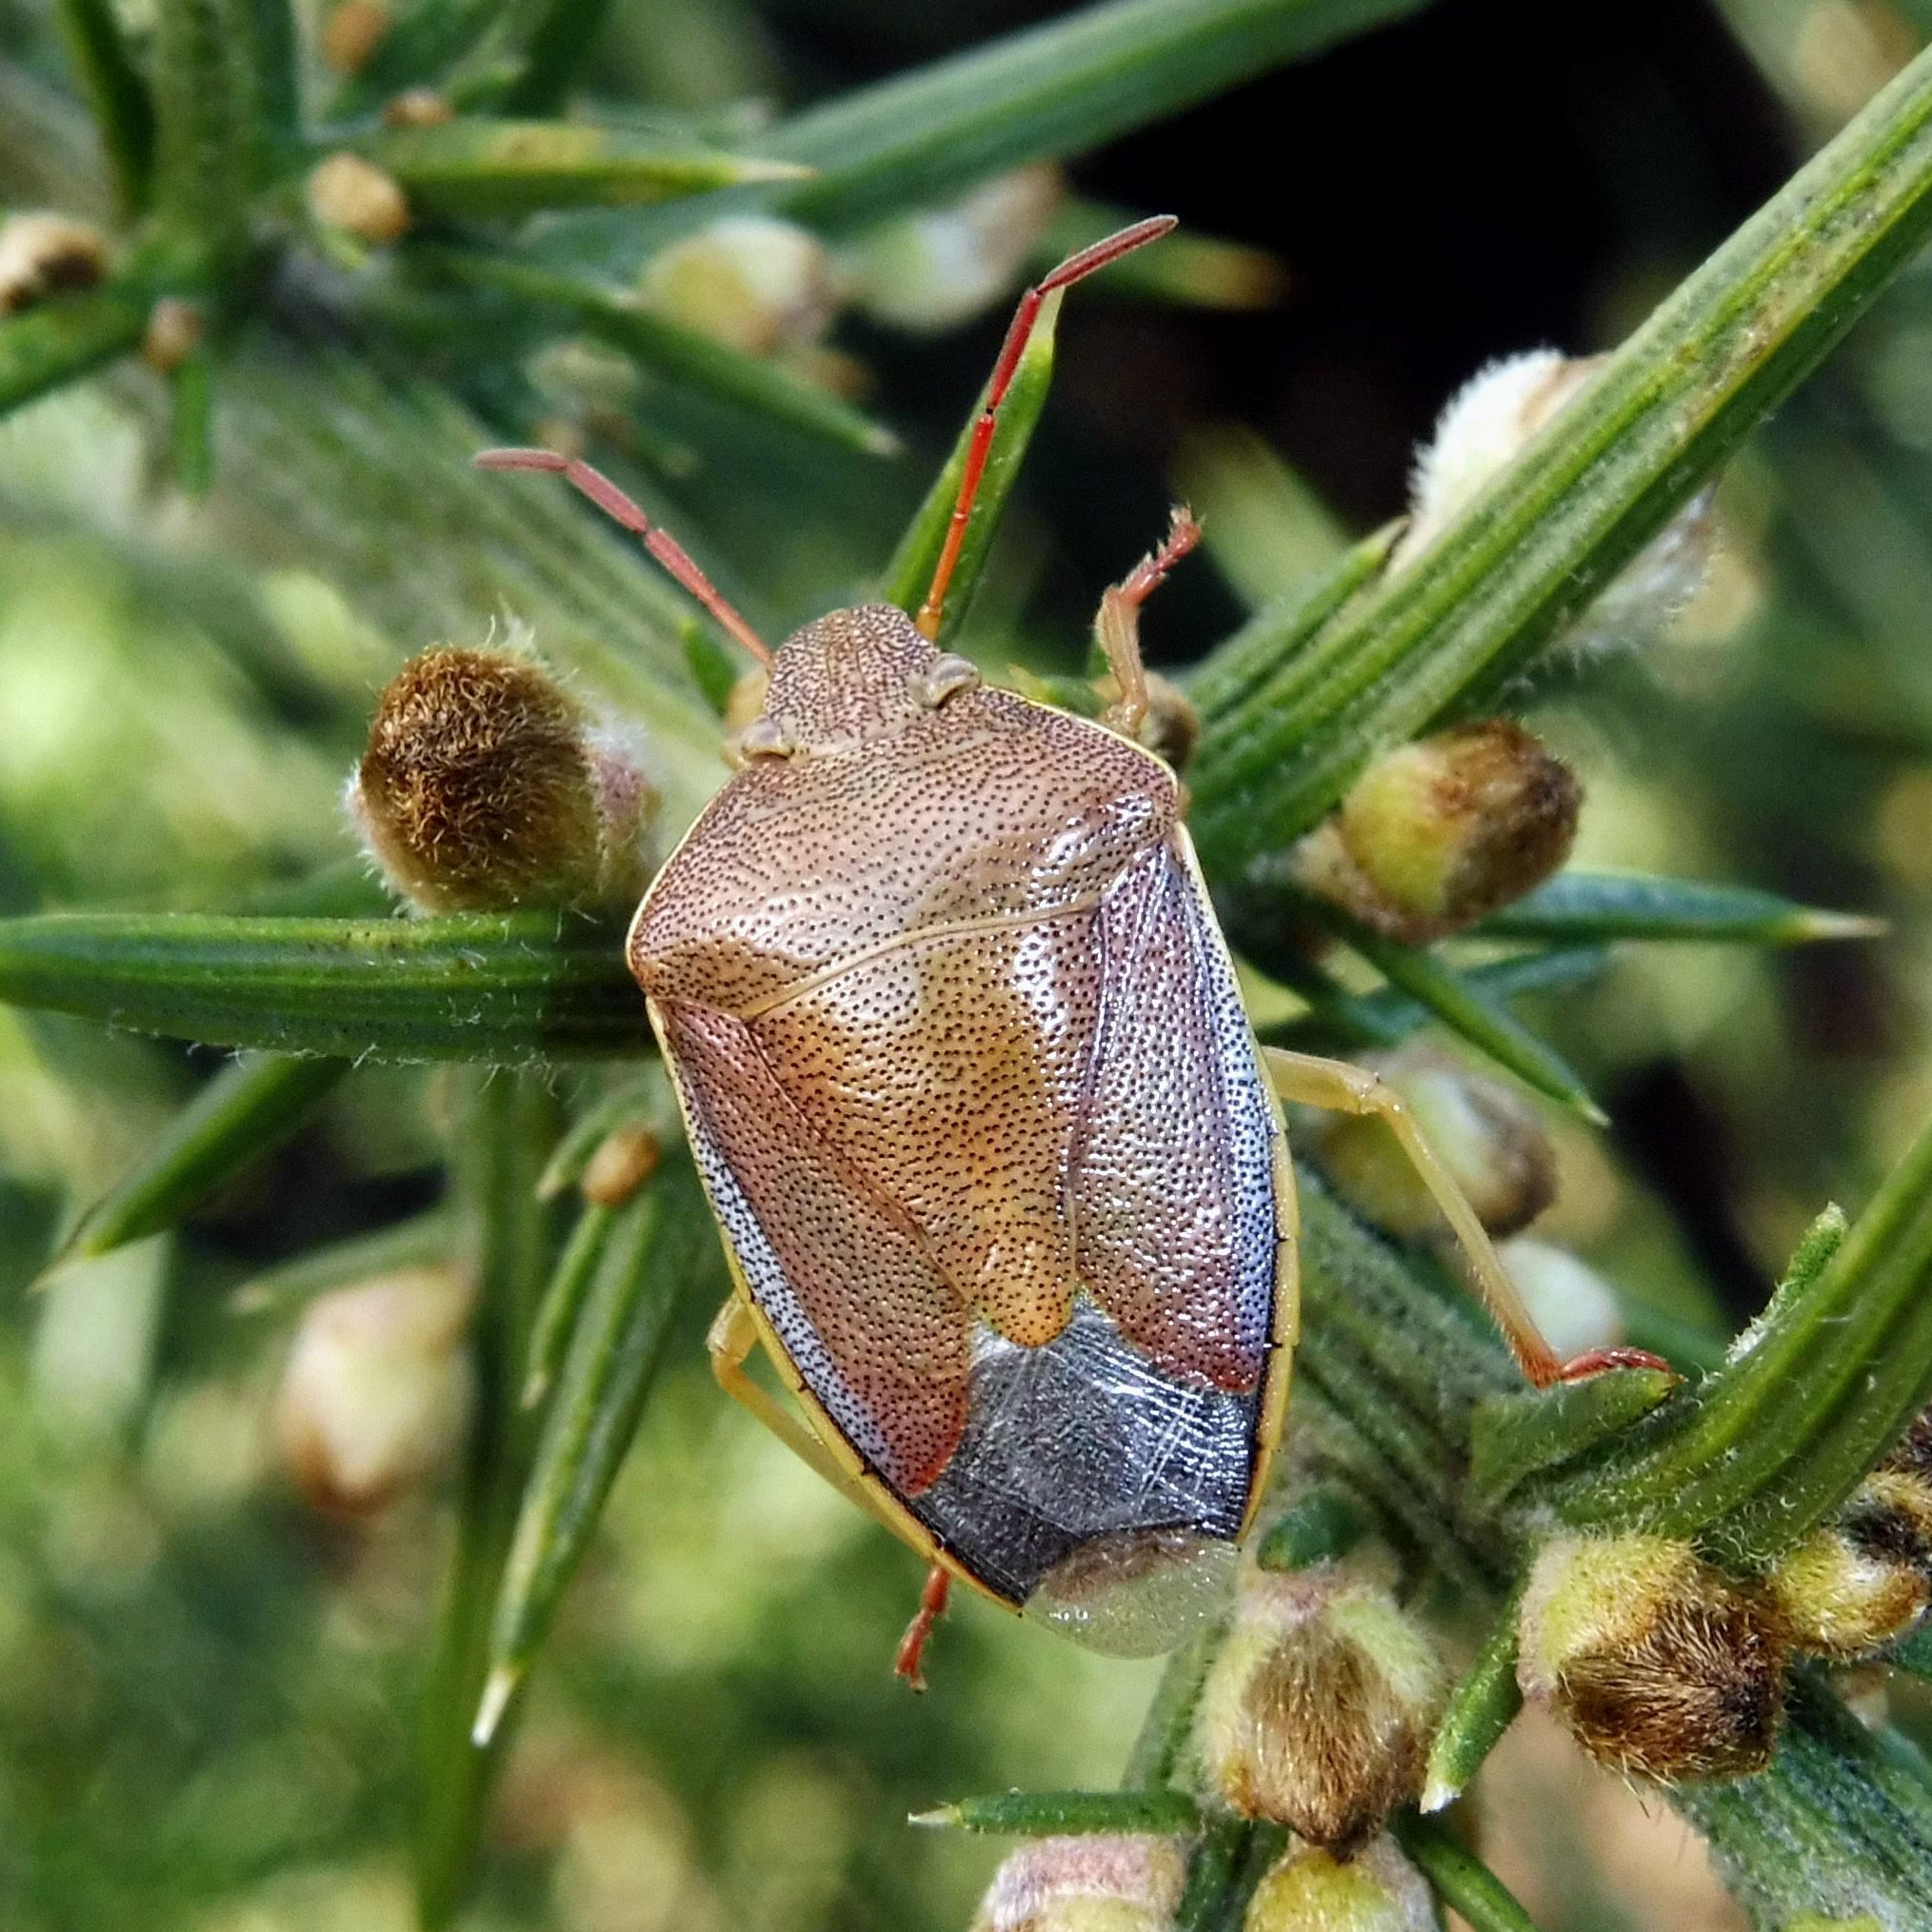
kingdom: Animalia
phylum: Arthropoda
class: Insecta
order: Hemiptera
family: Pentatomidae
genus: Piezodorus
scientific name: Piezodorus lituratus
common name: Stink bug
